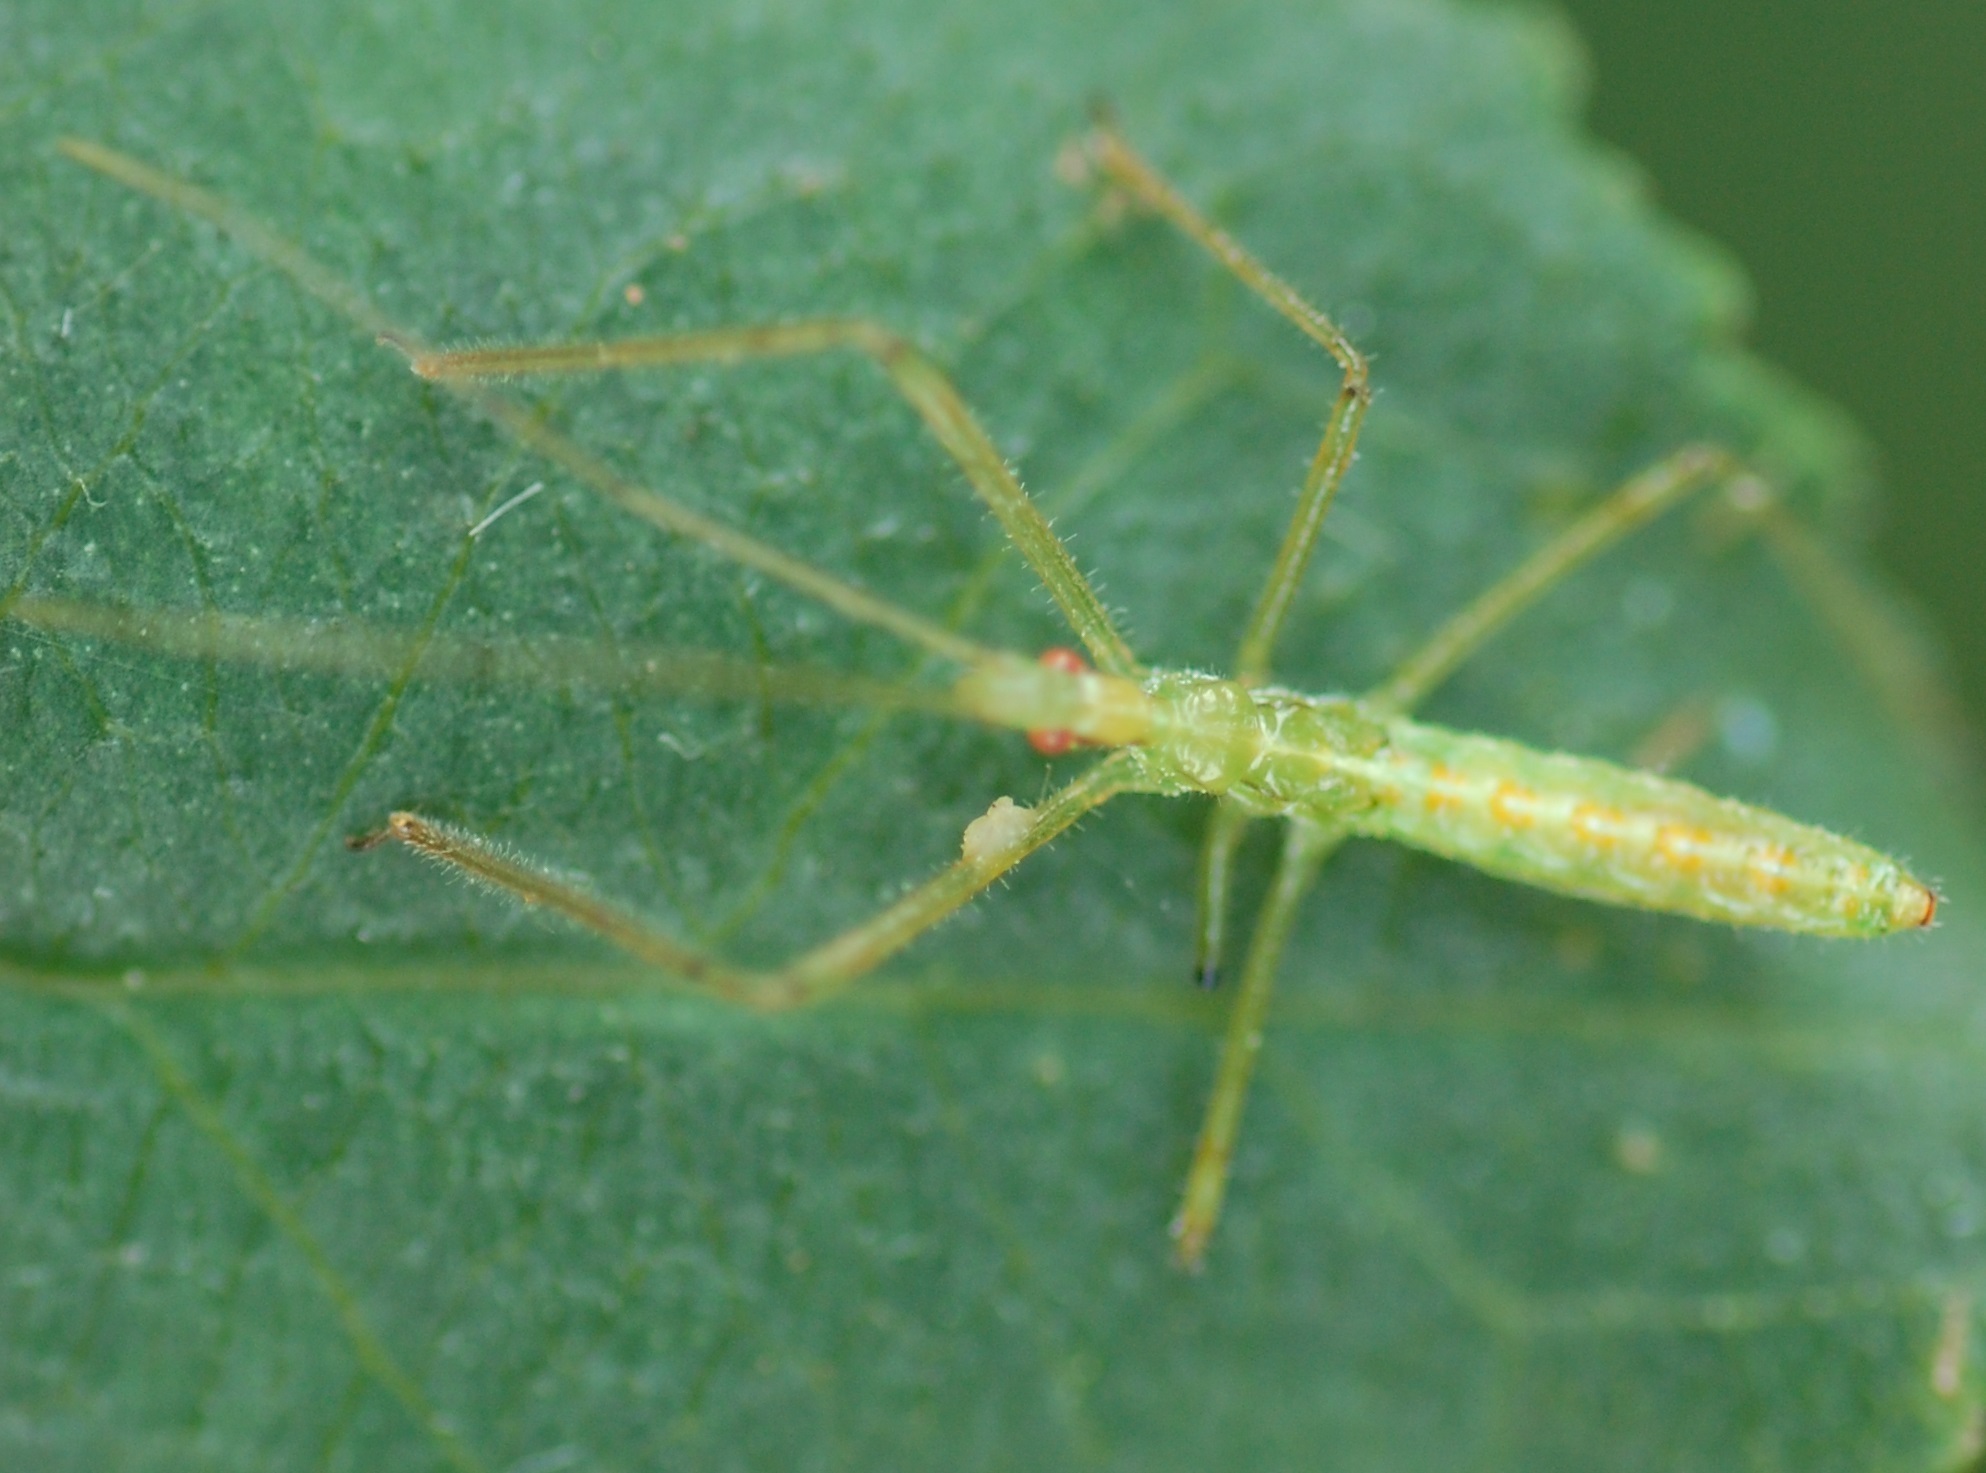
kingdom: Animalia
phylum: Arthropoda
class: Insecta
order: Hemiptera
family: Reduviidae
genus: Zelus
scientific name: Zelus luridus
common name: Pale green assassin bug
